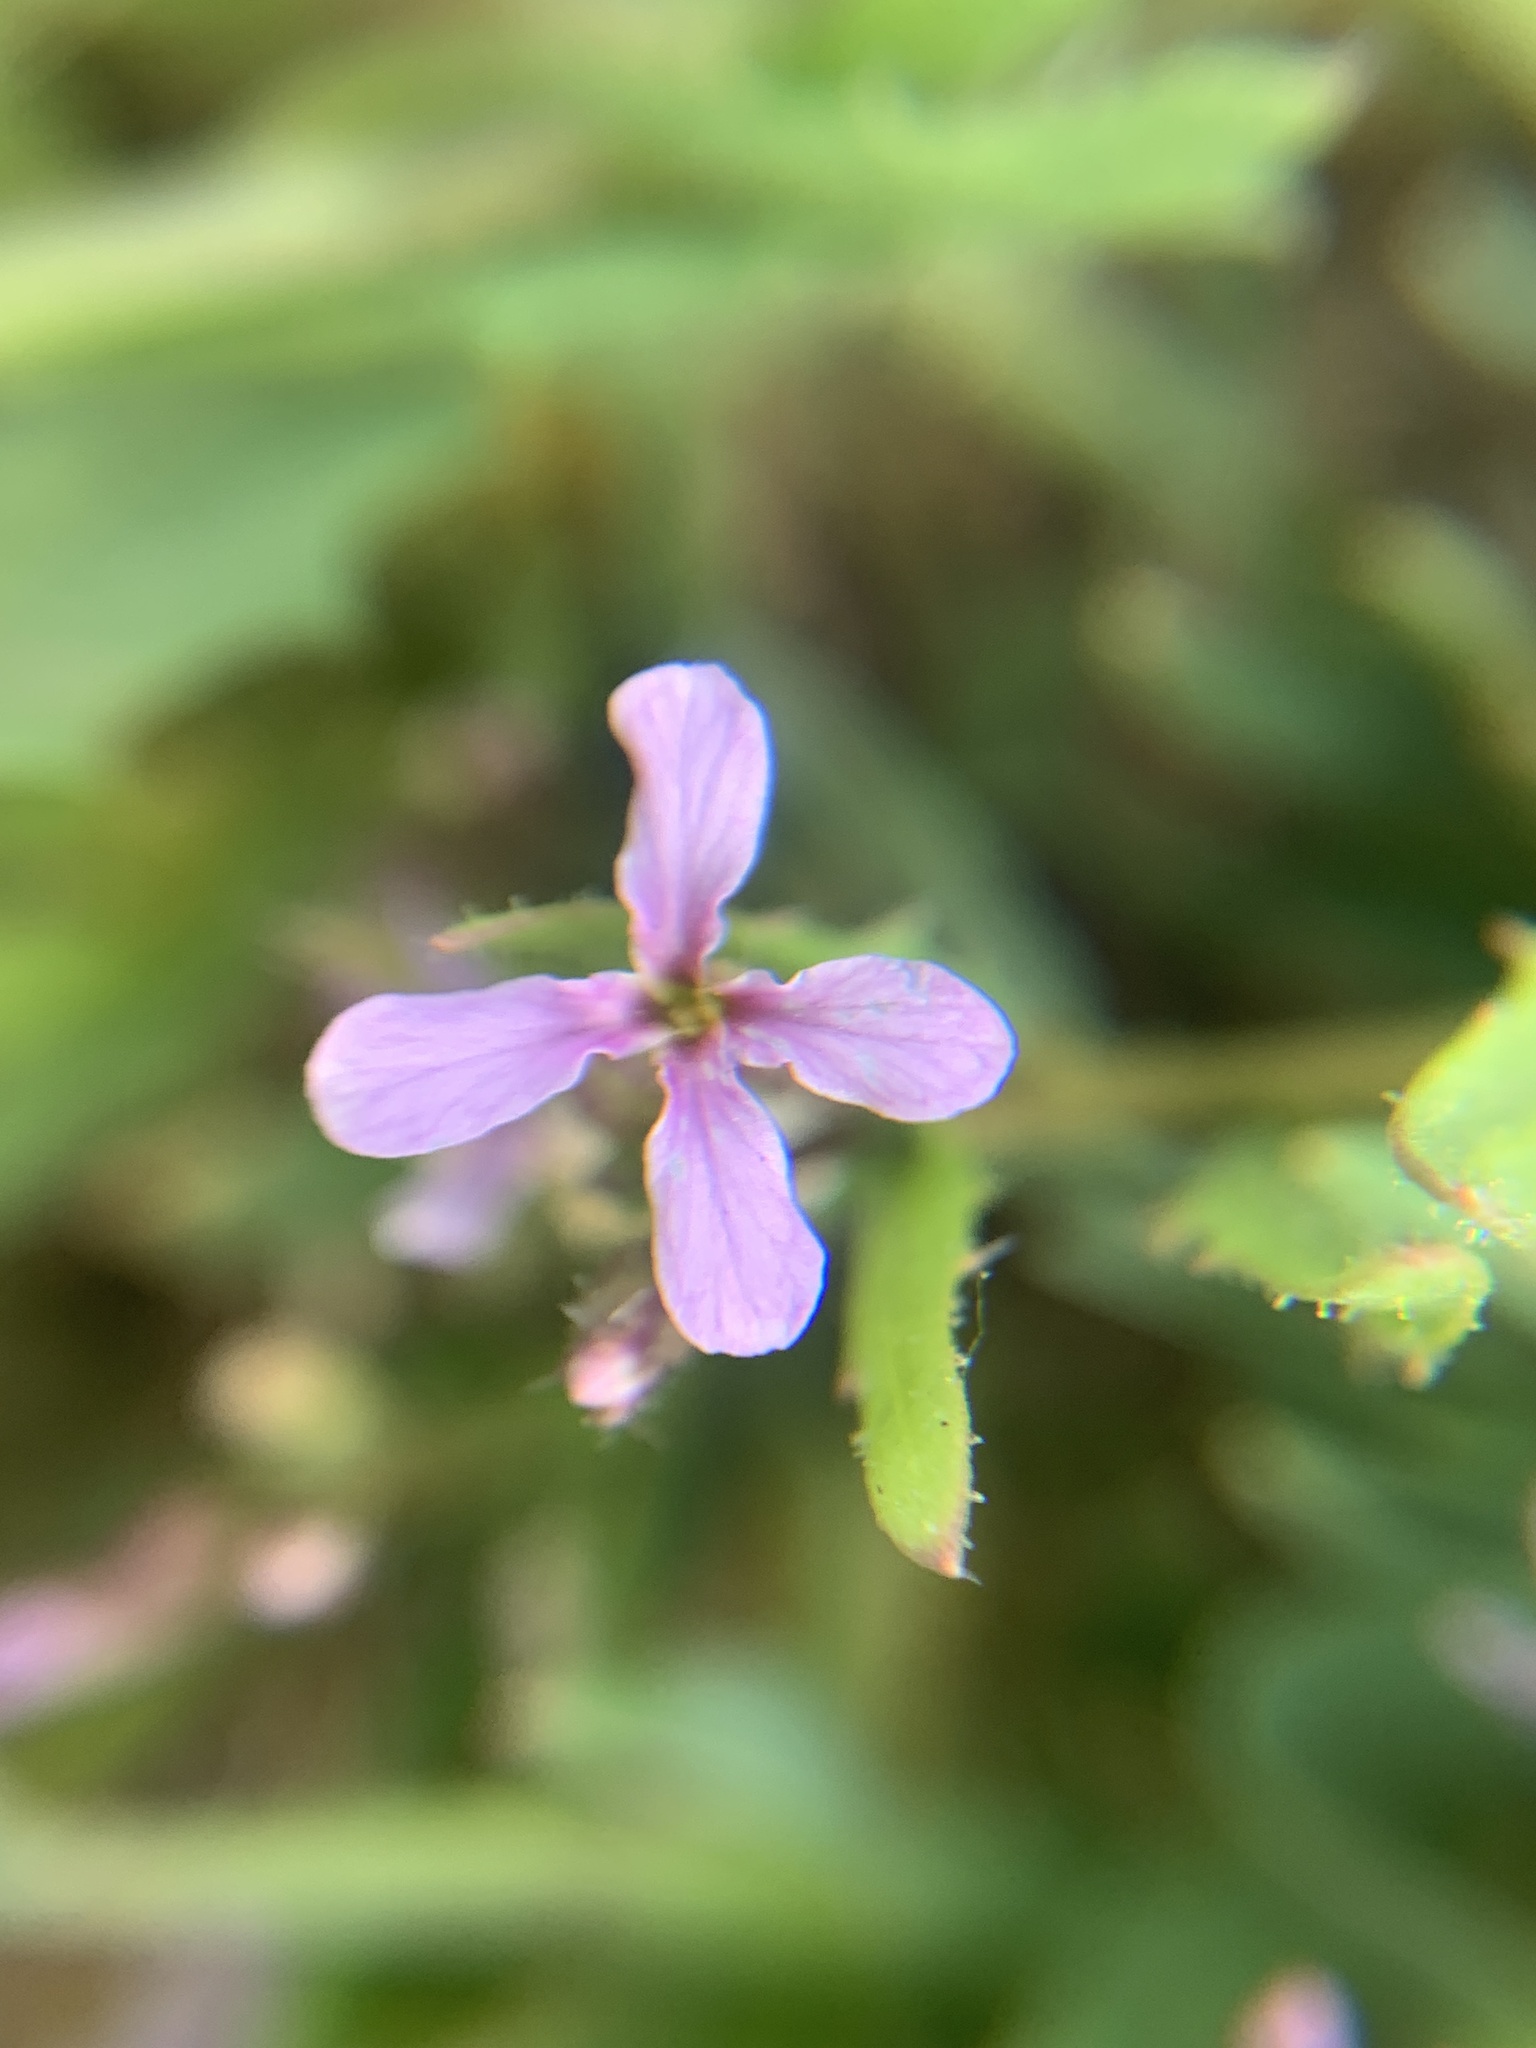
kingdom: Plantae
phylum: Tracheophyta
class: Magnoliopsida
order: Brassicales
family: Brassicaceae
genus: Chorispora
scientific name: Chorispora tenella
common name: Crossflower
